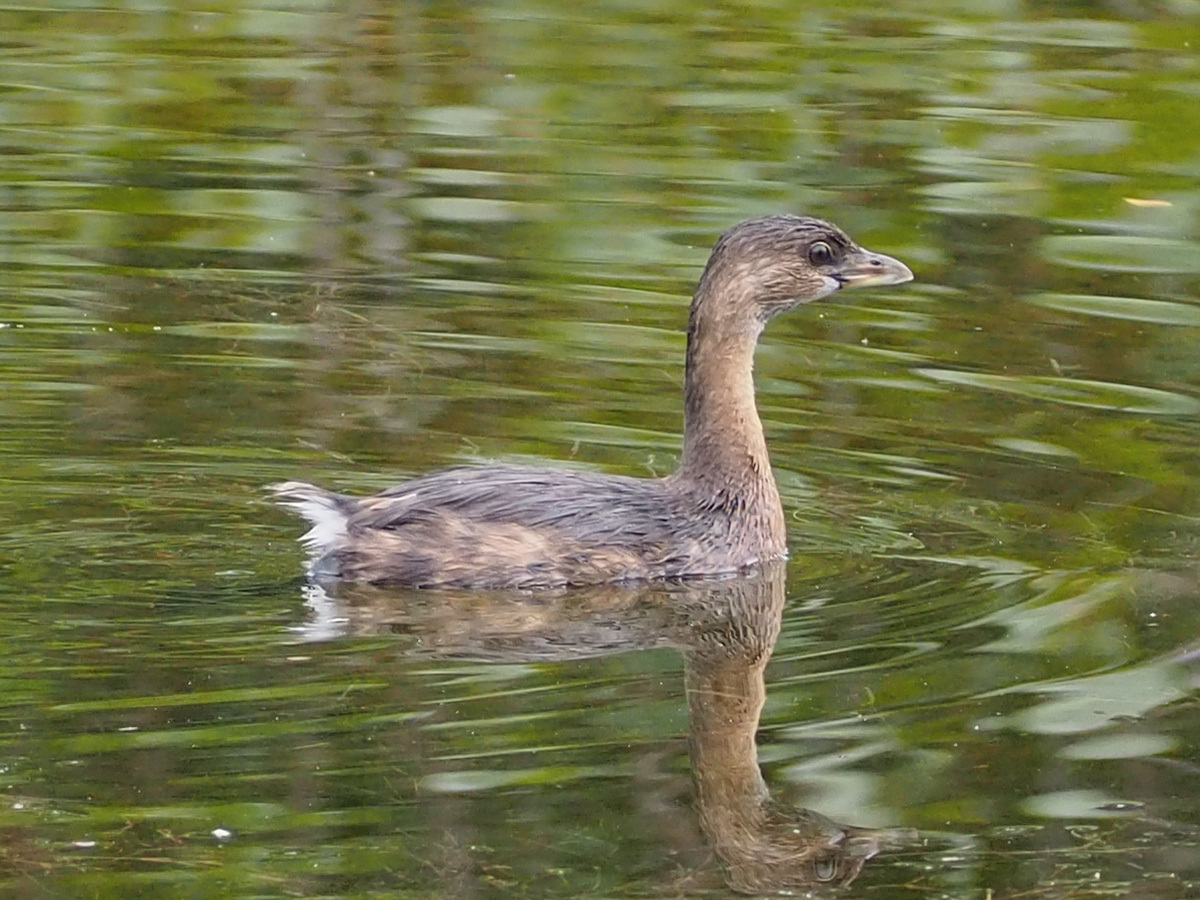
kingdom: Animalia
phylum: Chordata
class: Aves
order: Podicipediformes
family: Podicipedidae
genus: Podilymbus
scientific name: Podilymbus podiceps
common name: Pied-billed grebe
